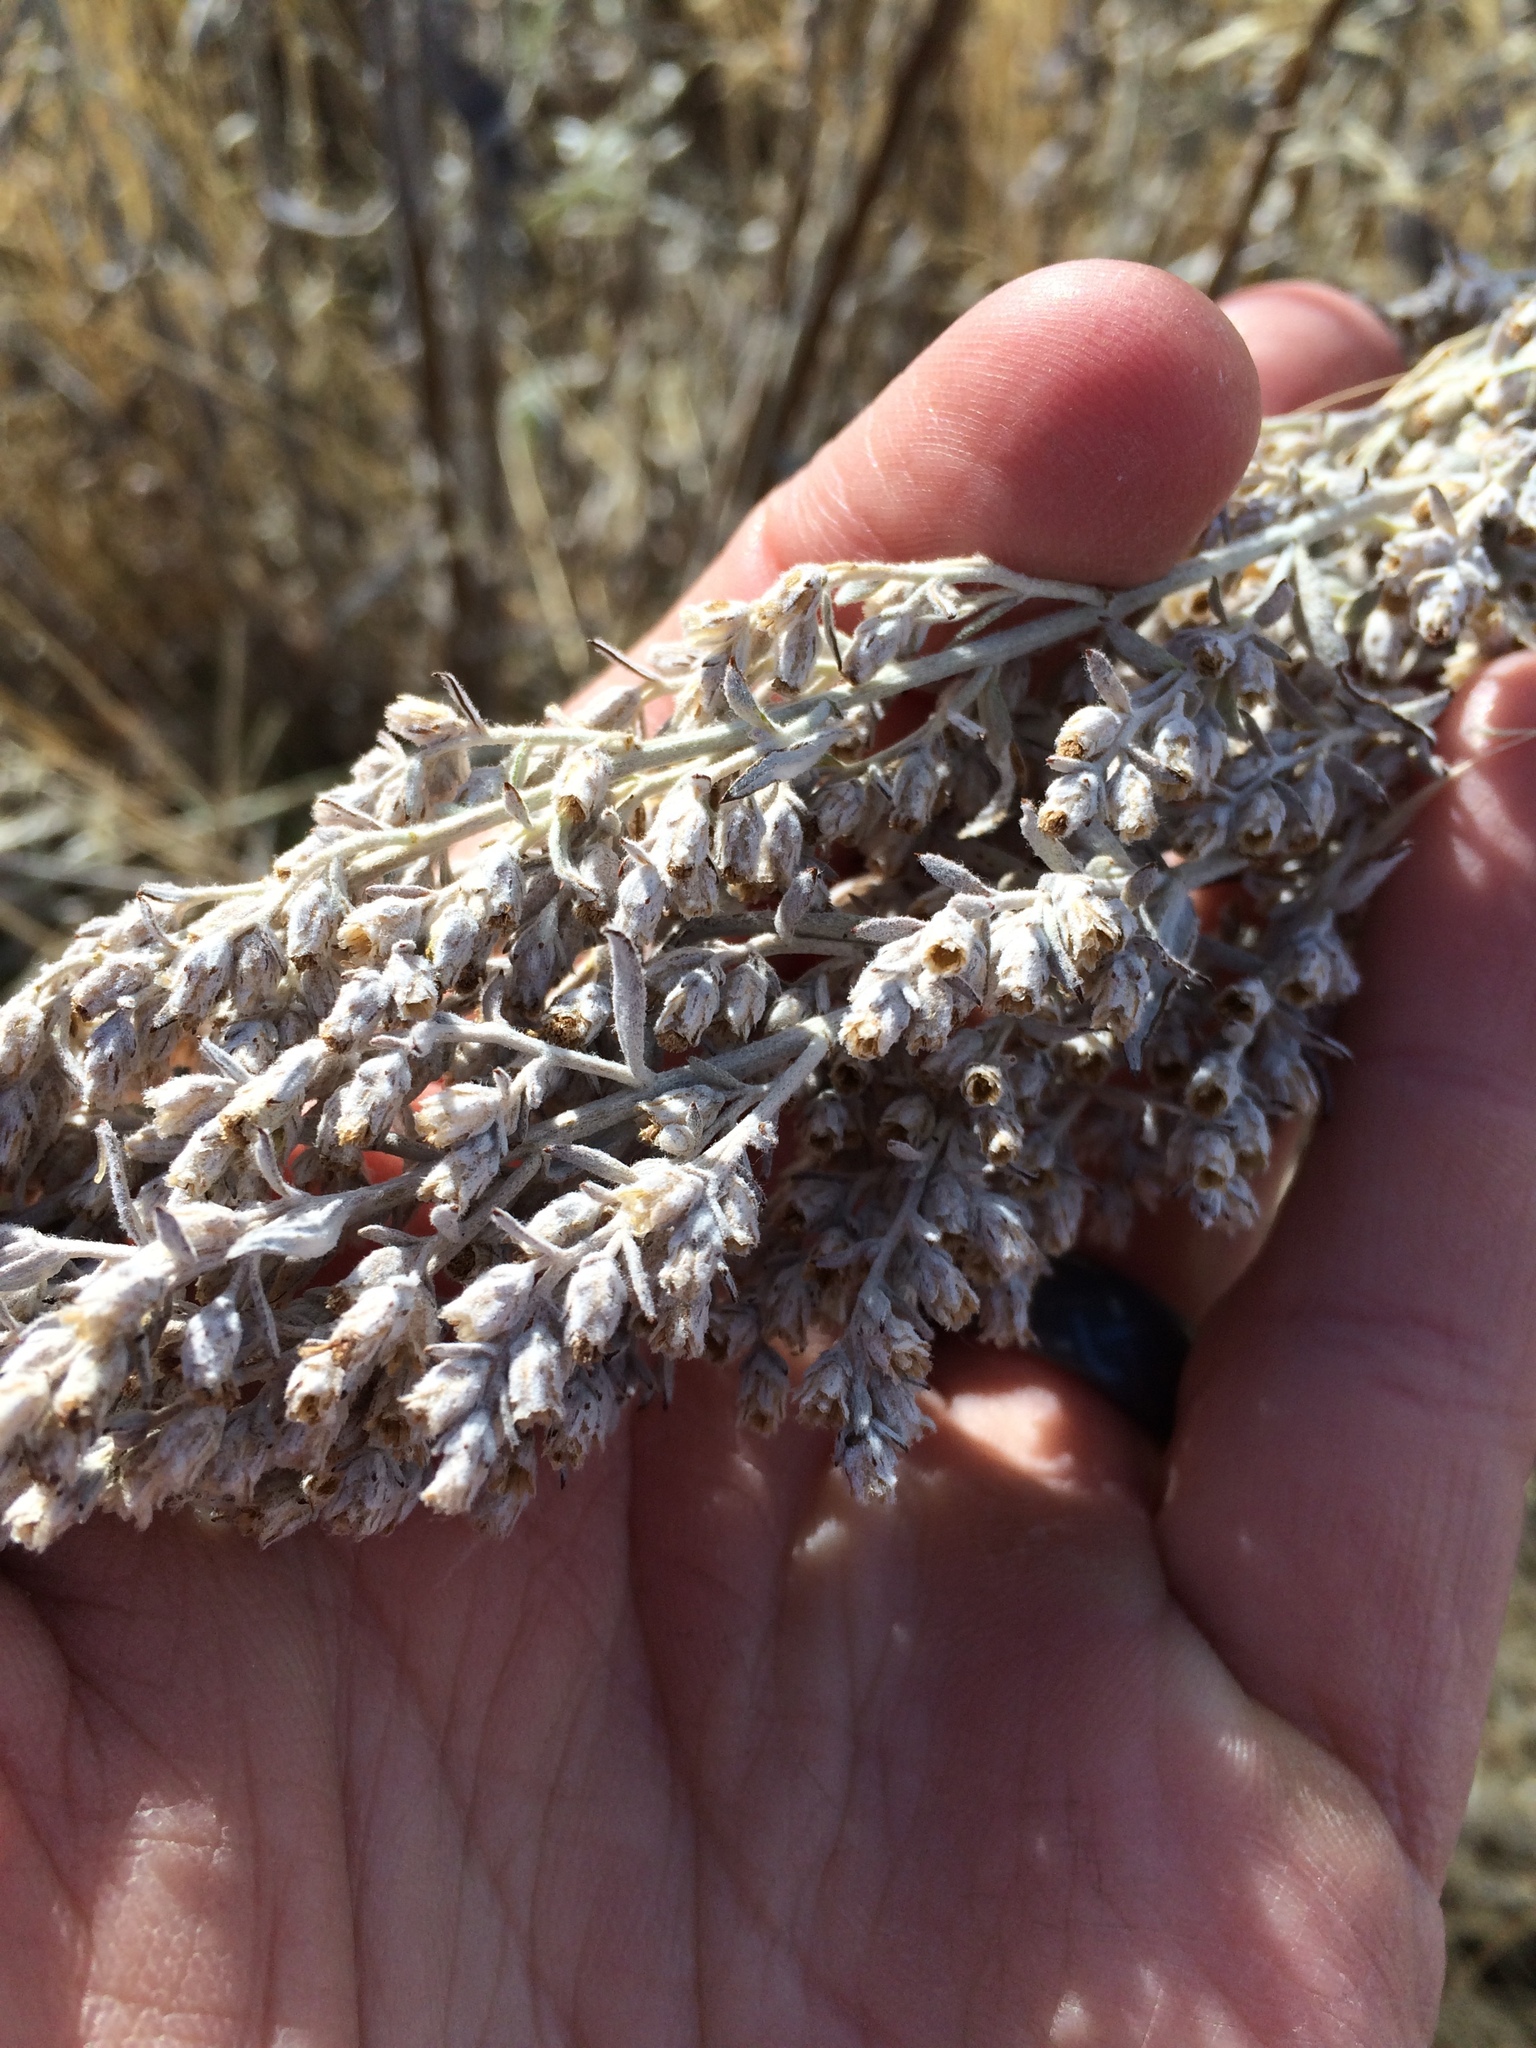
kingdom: Plantae
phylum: Tracheophyta
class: Magnoliopsida
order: Asterales
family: Asteraceae
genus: Artemisia
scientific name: Artemisia ludoviciana
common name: Western mugwort
